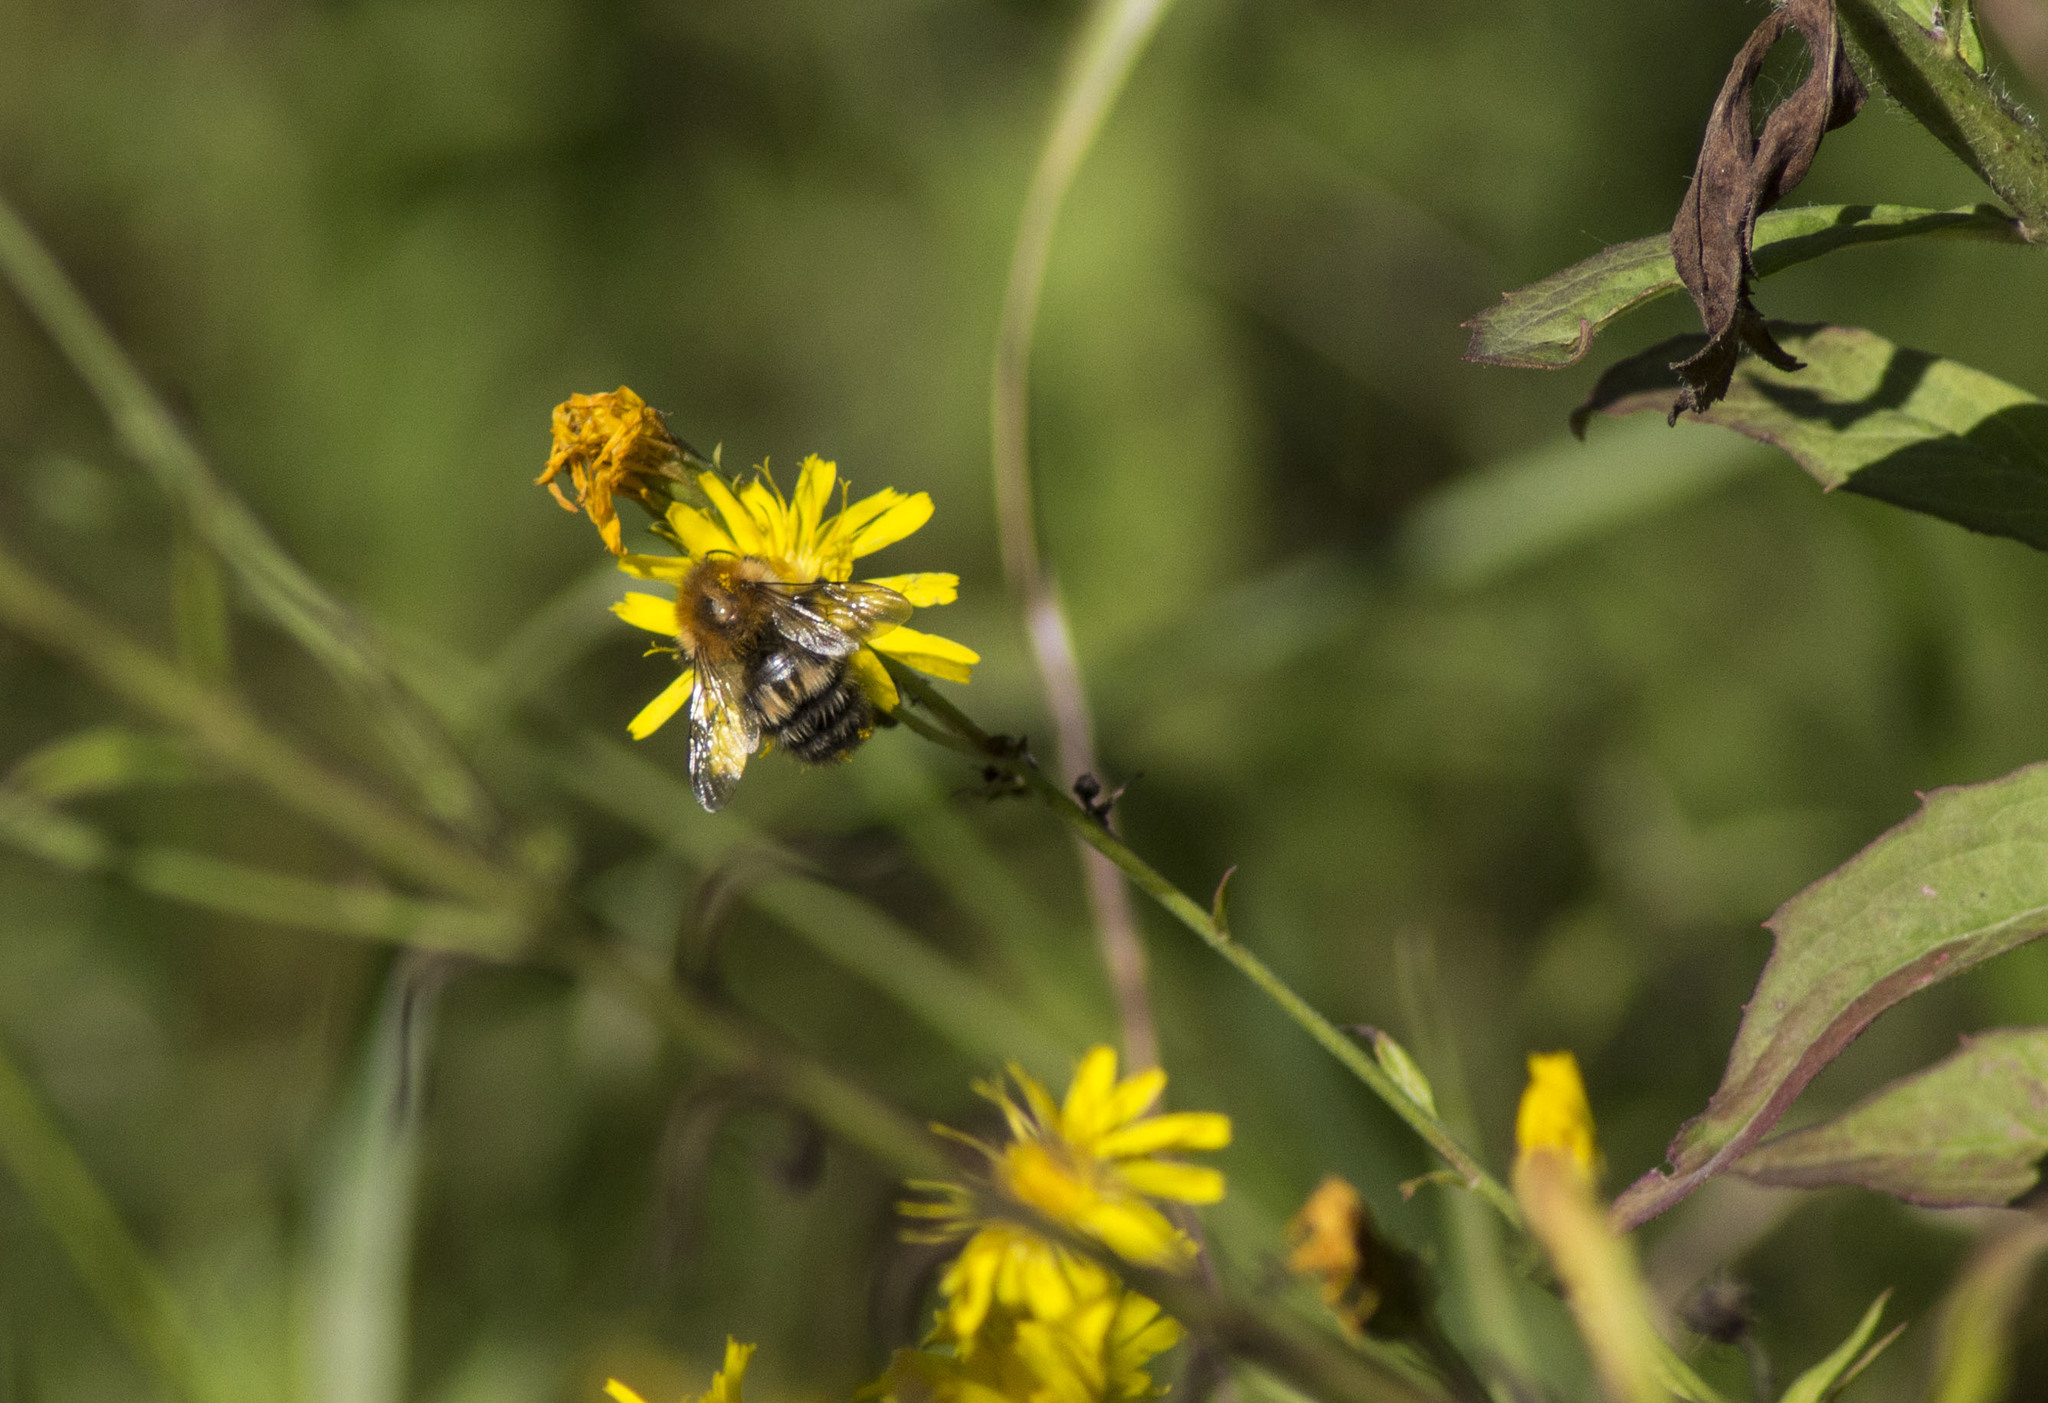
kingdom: Animalia
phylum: Arthropoda
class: Insecta
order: Hymenoptera
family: Apidae
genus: Bombus
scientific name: Bombus schrencki
